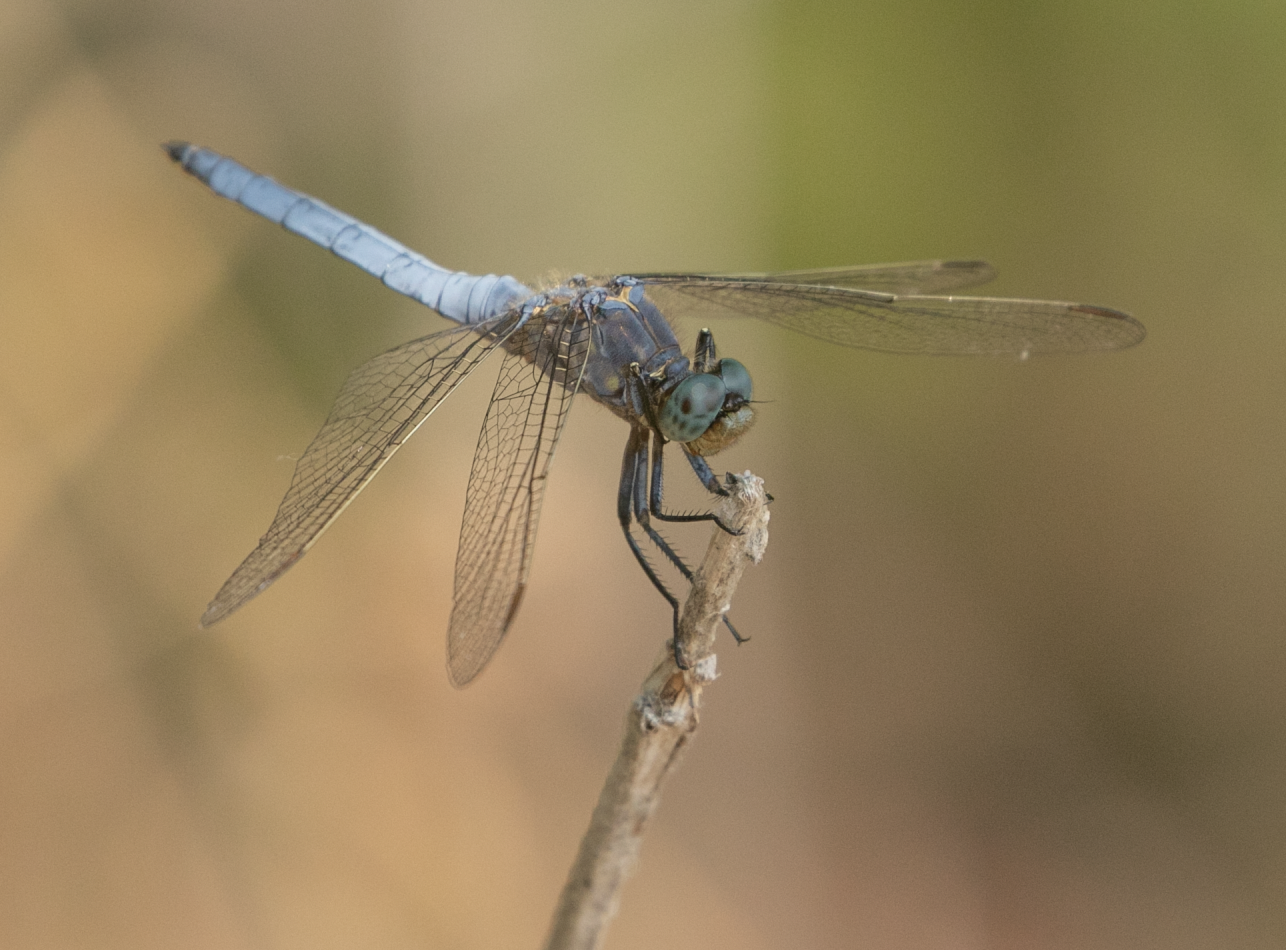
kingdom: Animalia
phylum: Arthropoda
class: Insecta
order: Odonata
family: Libellulidae
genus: Orthetrum
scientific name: Orthetrum coerulescens
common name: Keeled skimmer
